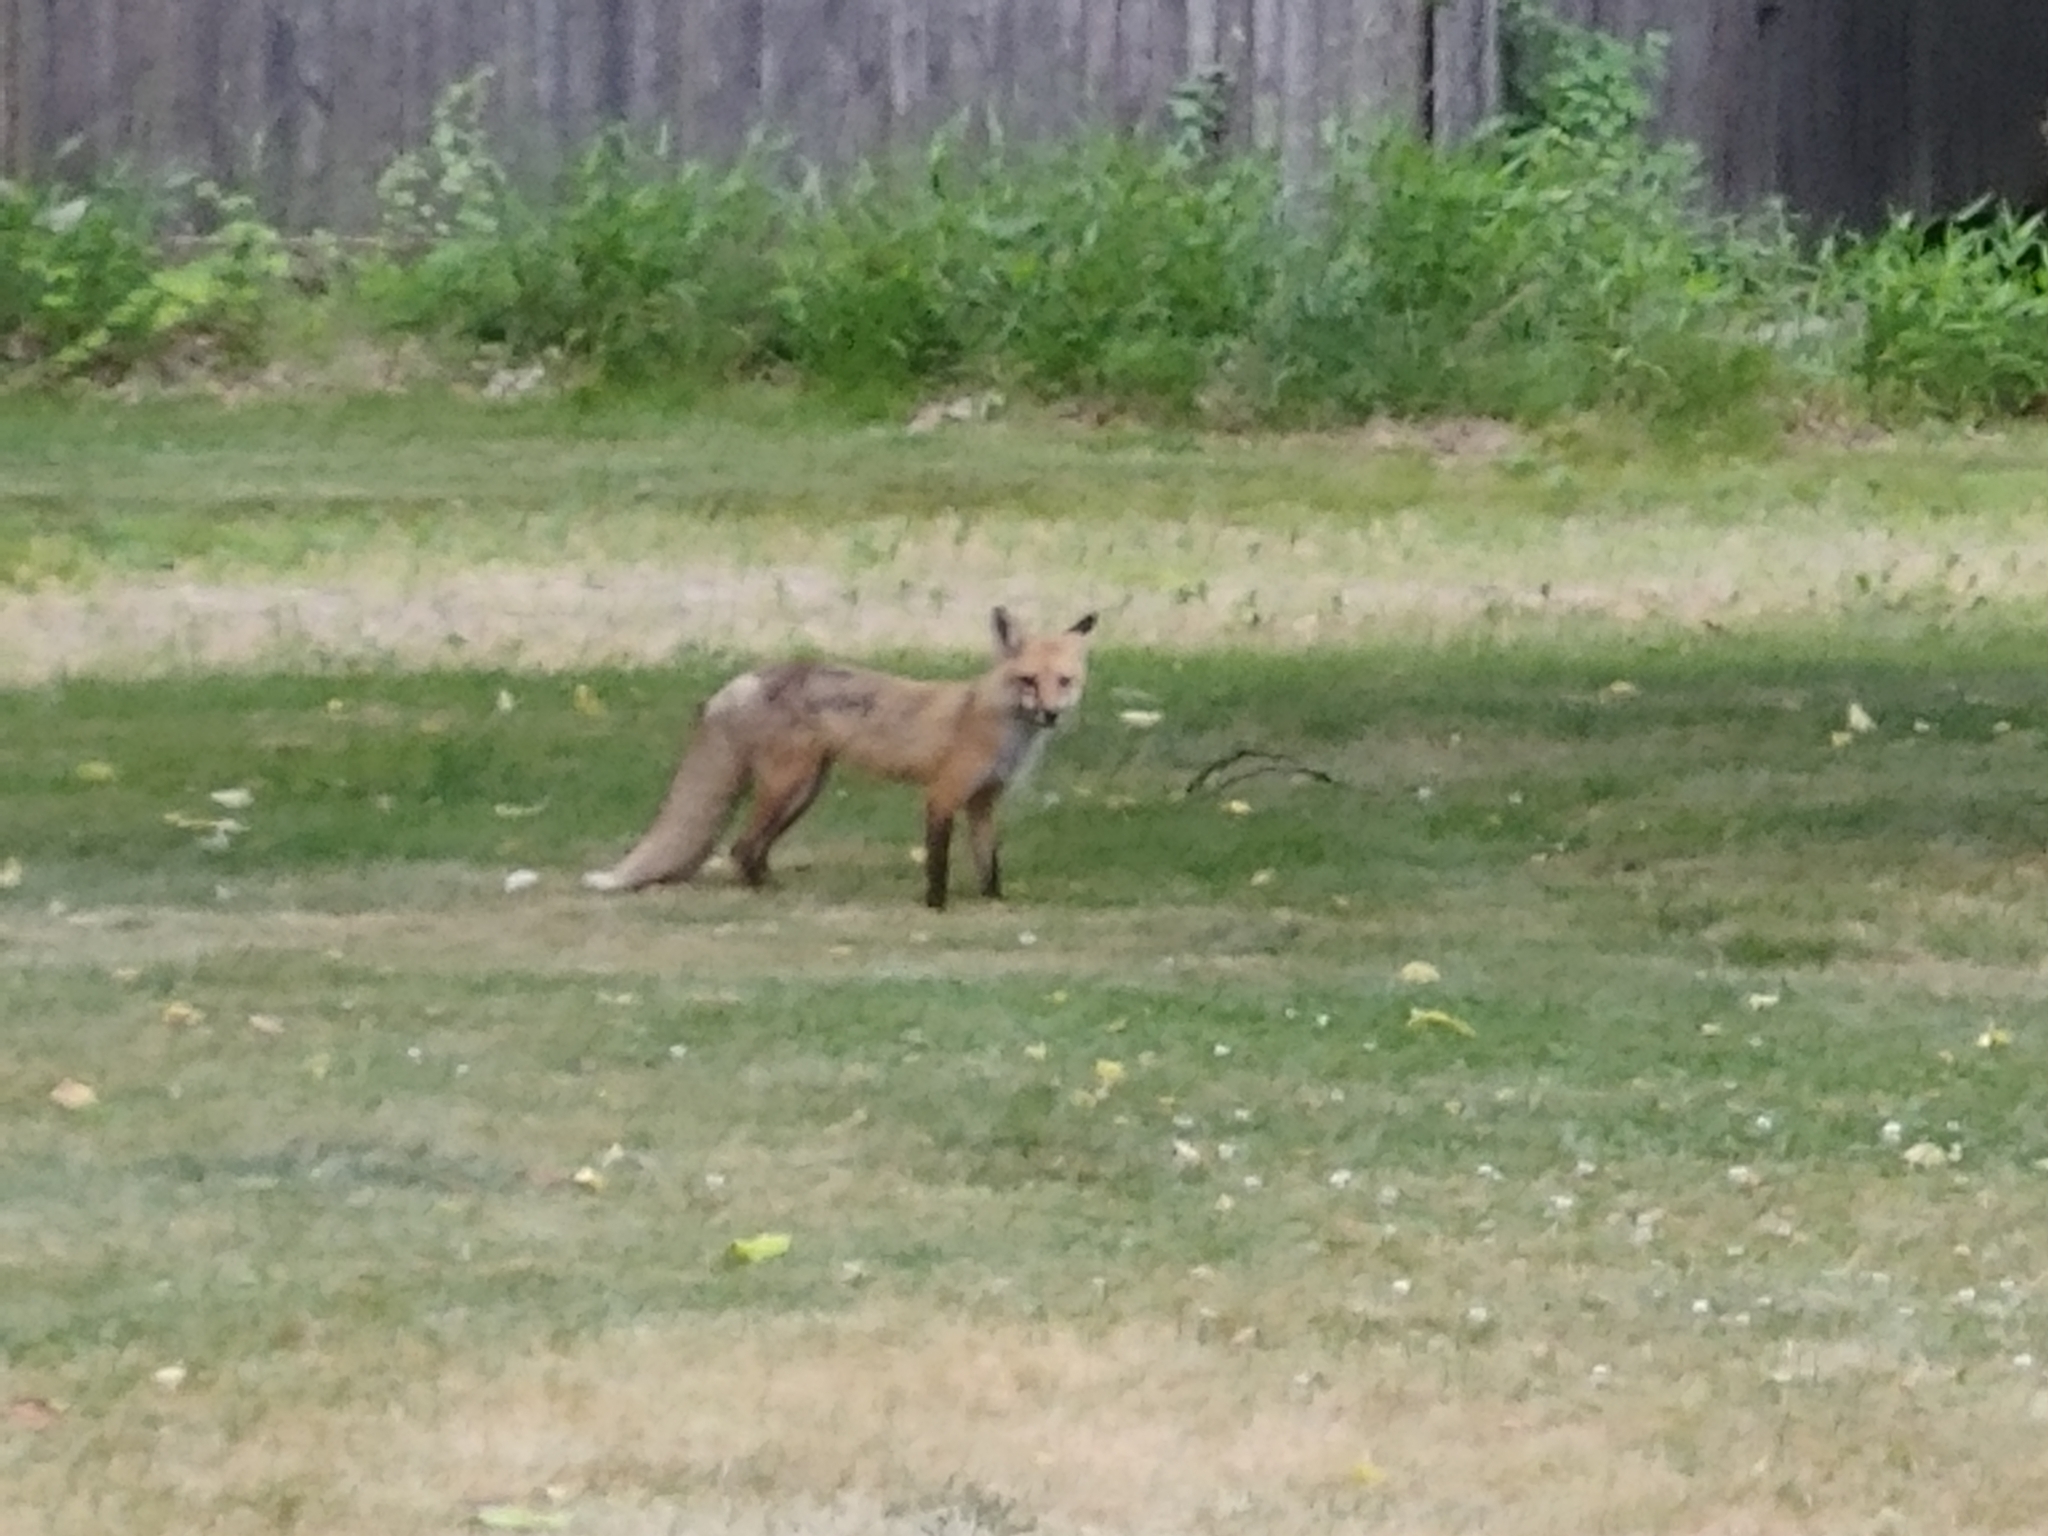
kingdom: Animalia
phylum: Chordata
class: Mammalia
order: Carnivora
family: Canidae
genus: Vulpes
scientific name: Vulpes vulpes
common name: Red fox
